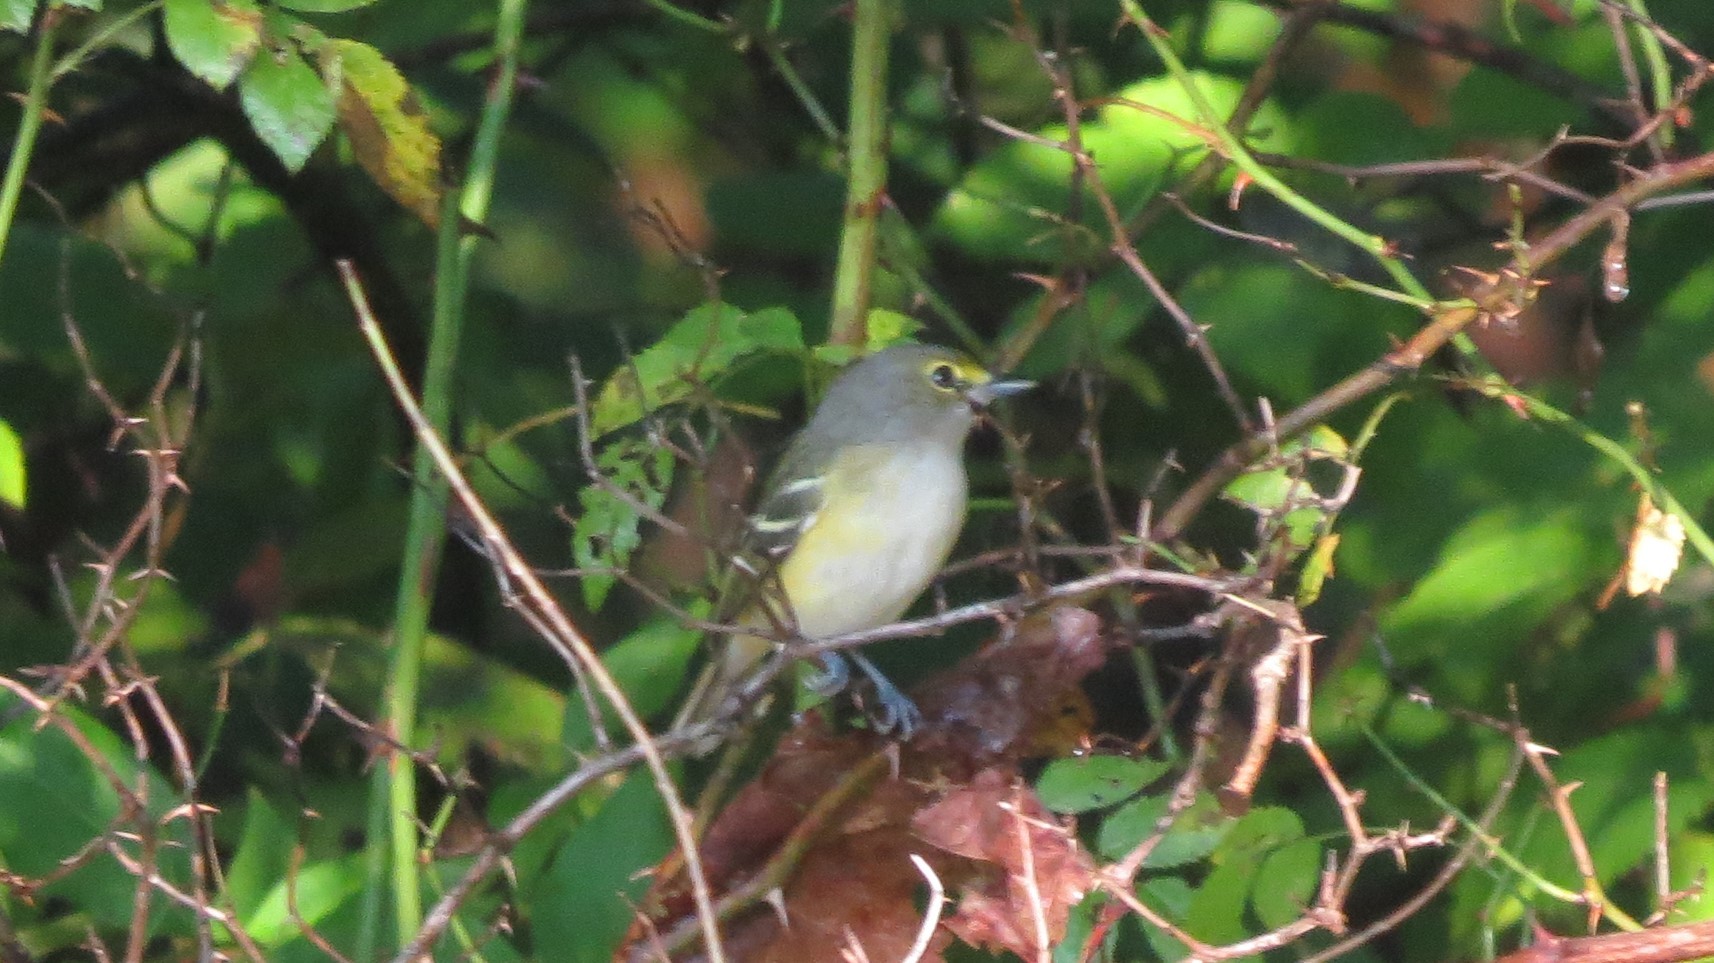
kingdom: Animalia
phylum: Chordata
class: Aves
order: Passeriformes
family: Vireonidae
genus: Vireo
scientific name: Vireo griseus
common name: White-eyed vireo
